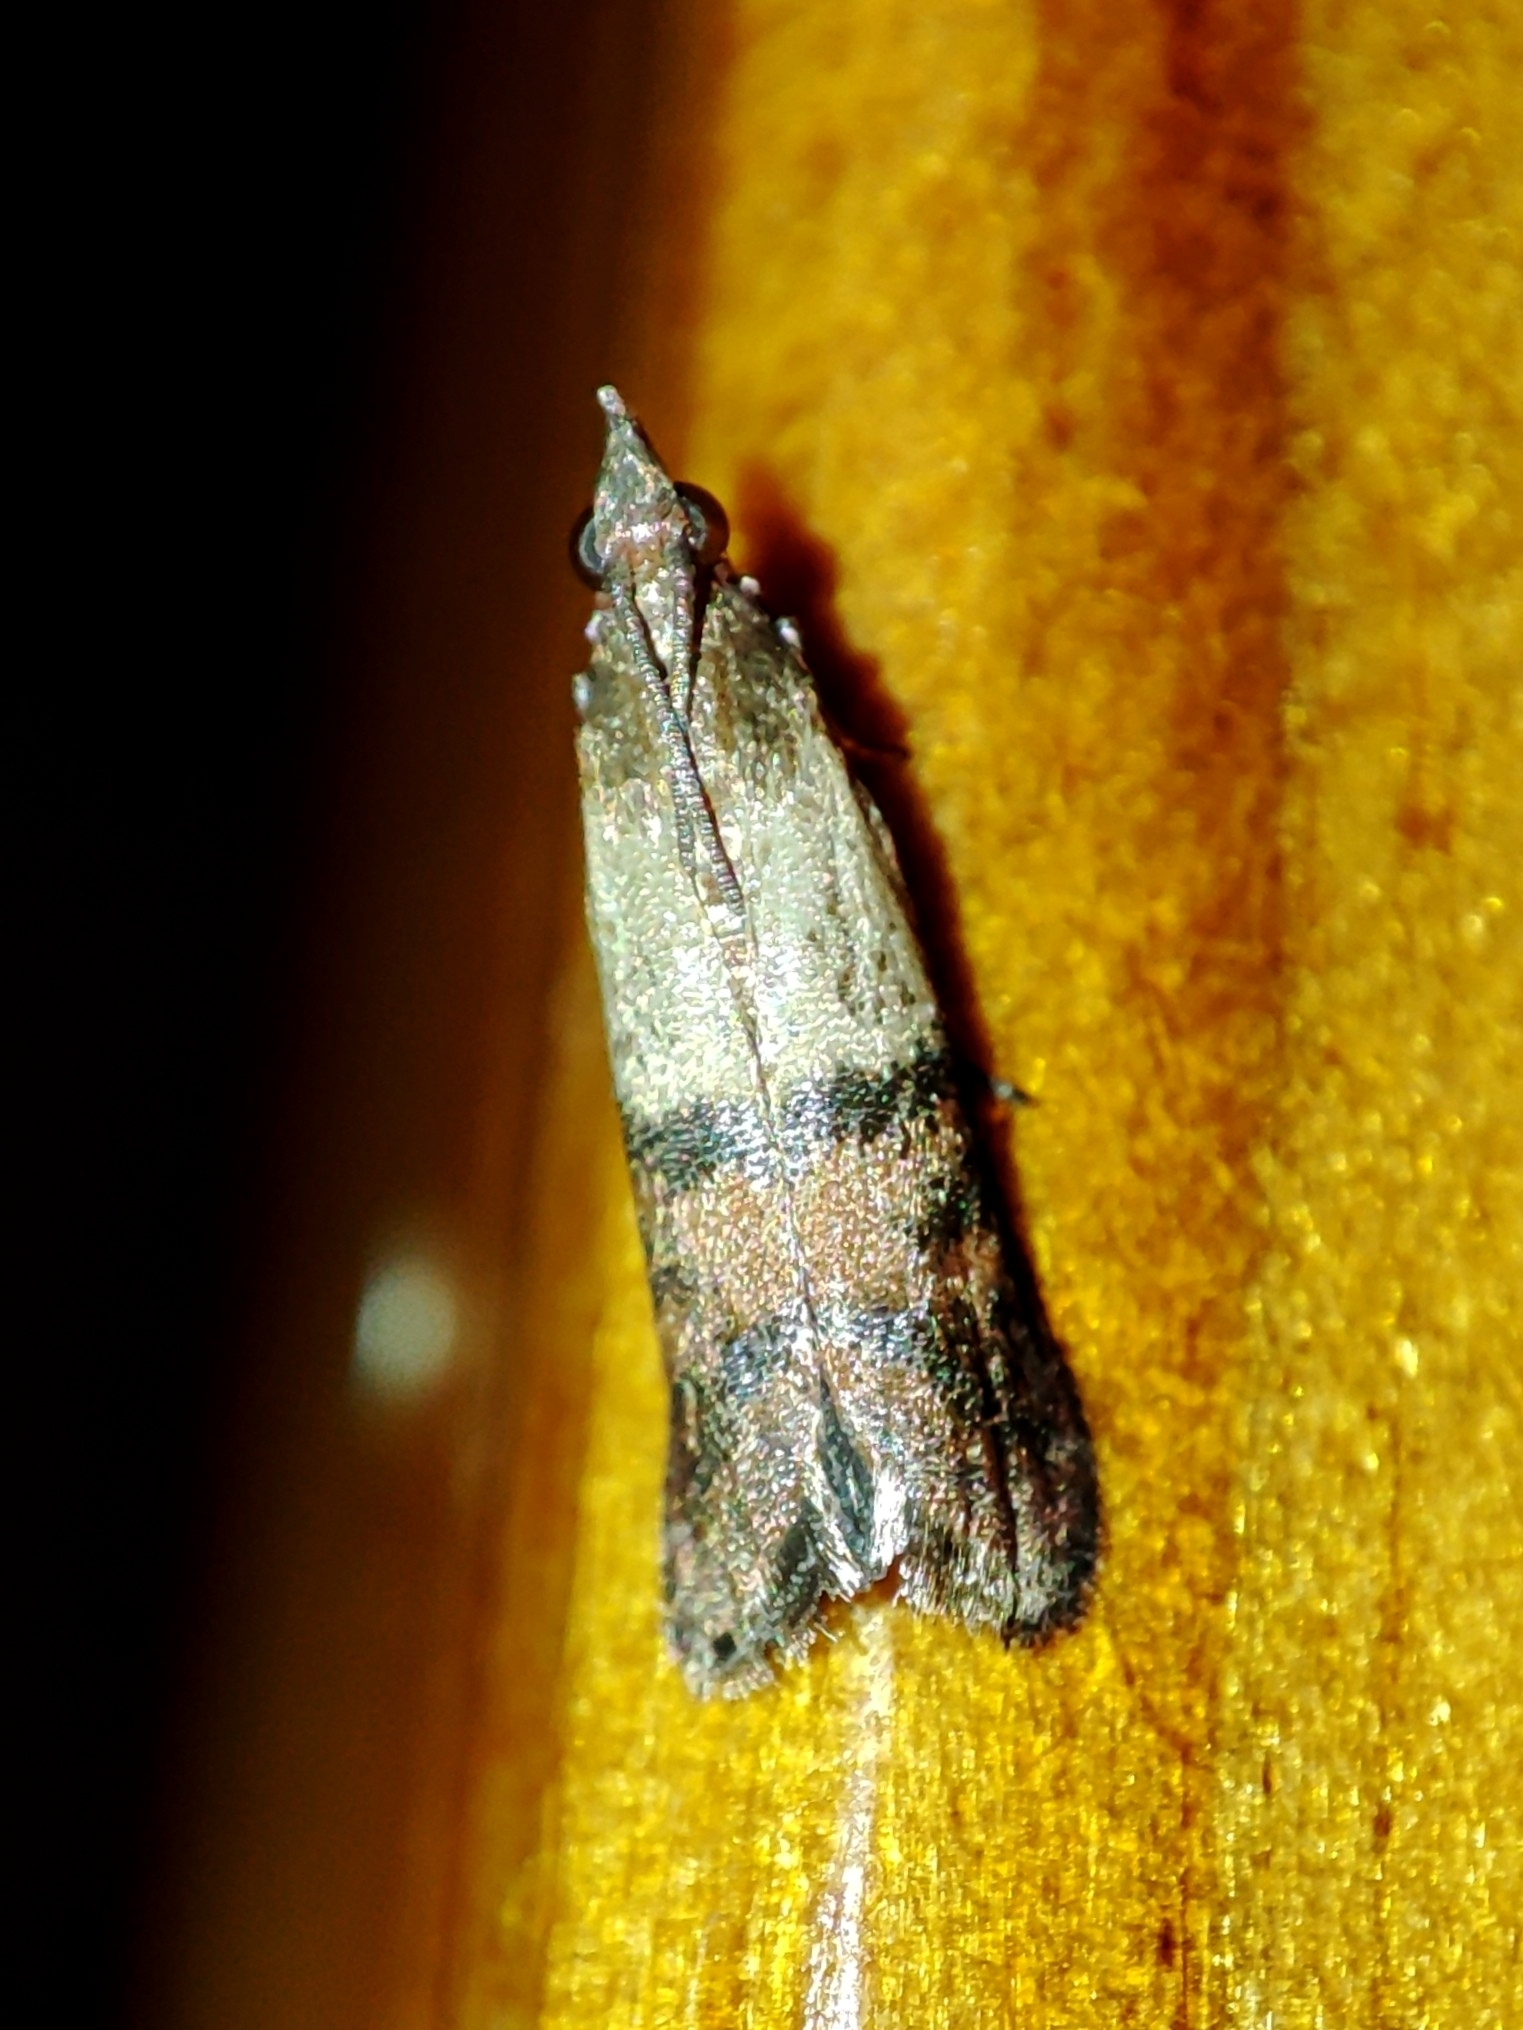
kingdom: Animalia
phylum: Arthropoda
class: Insecta
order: Lepidoptera
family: Pyralidae
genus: Plodia
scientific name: Plodia interpunctella
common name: Indian meal moth
